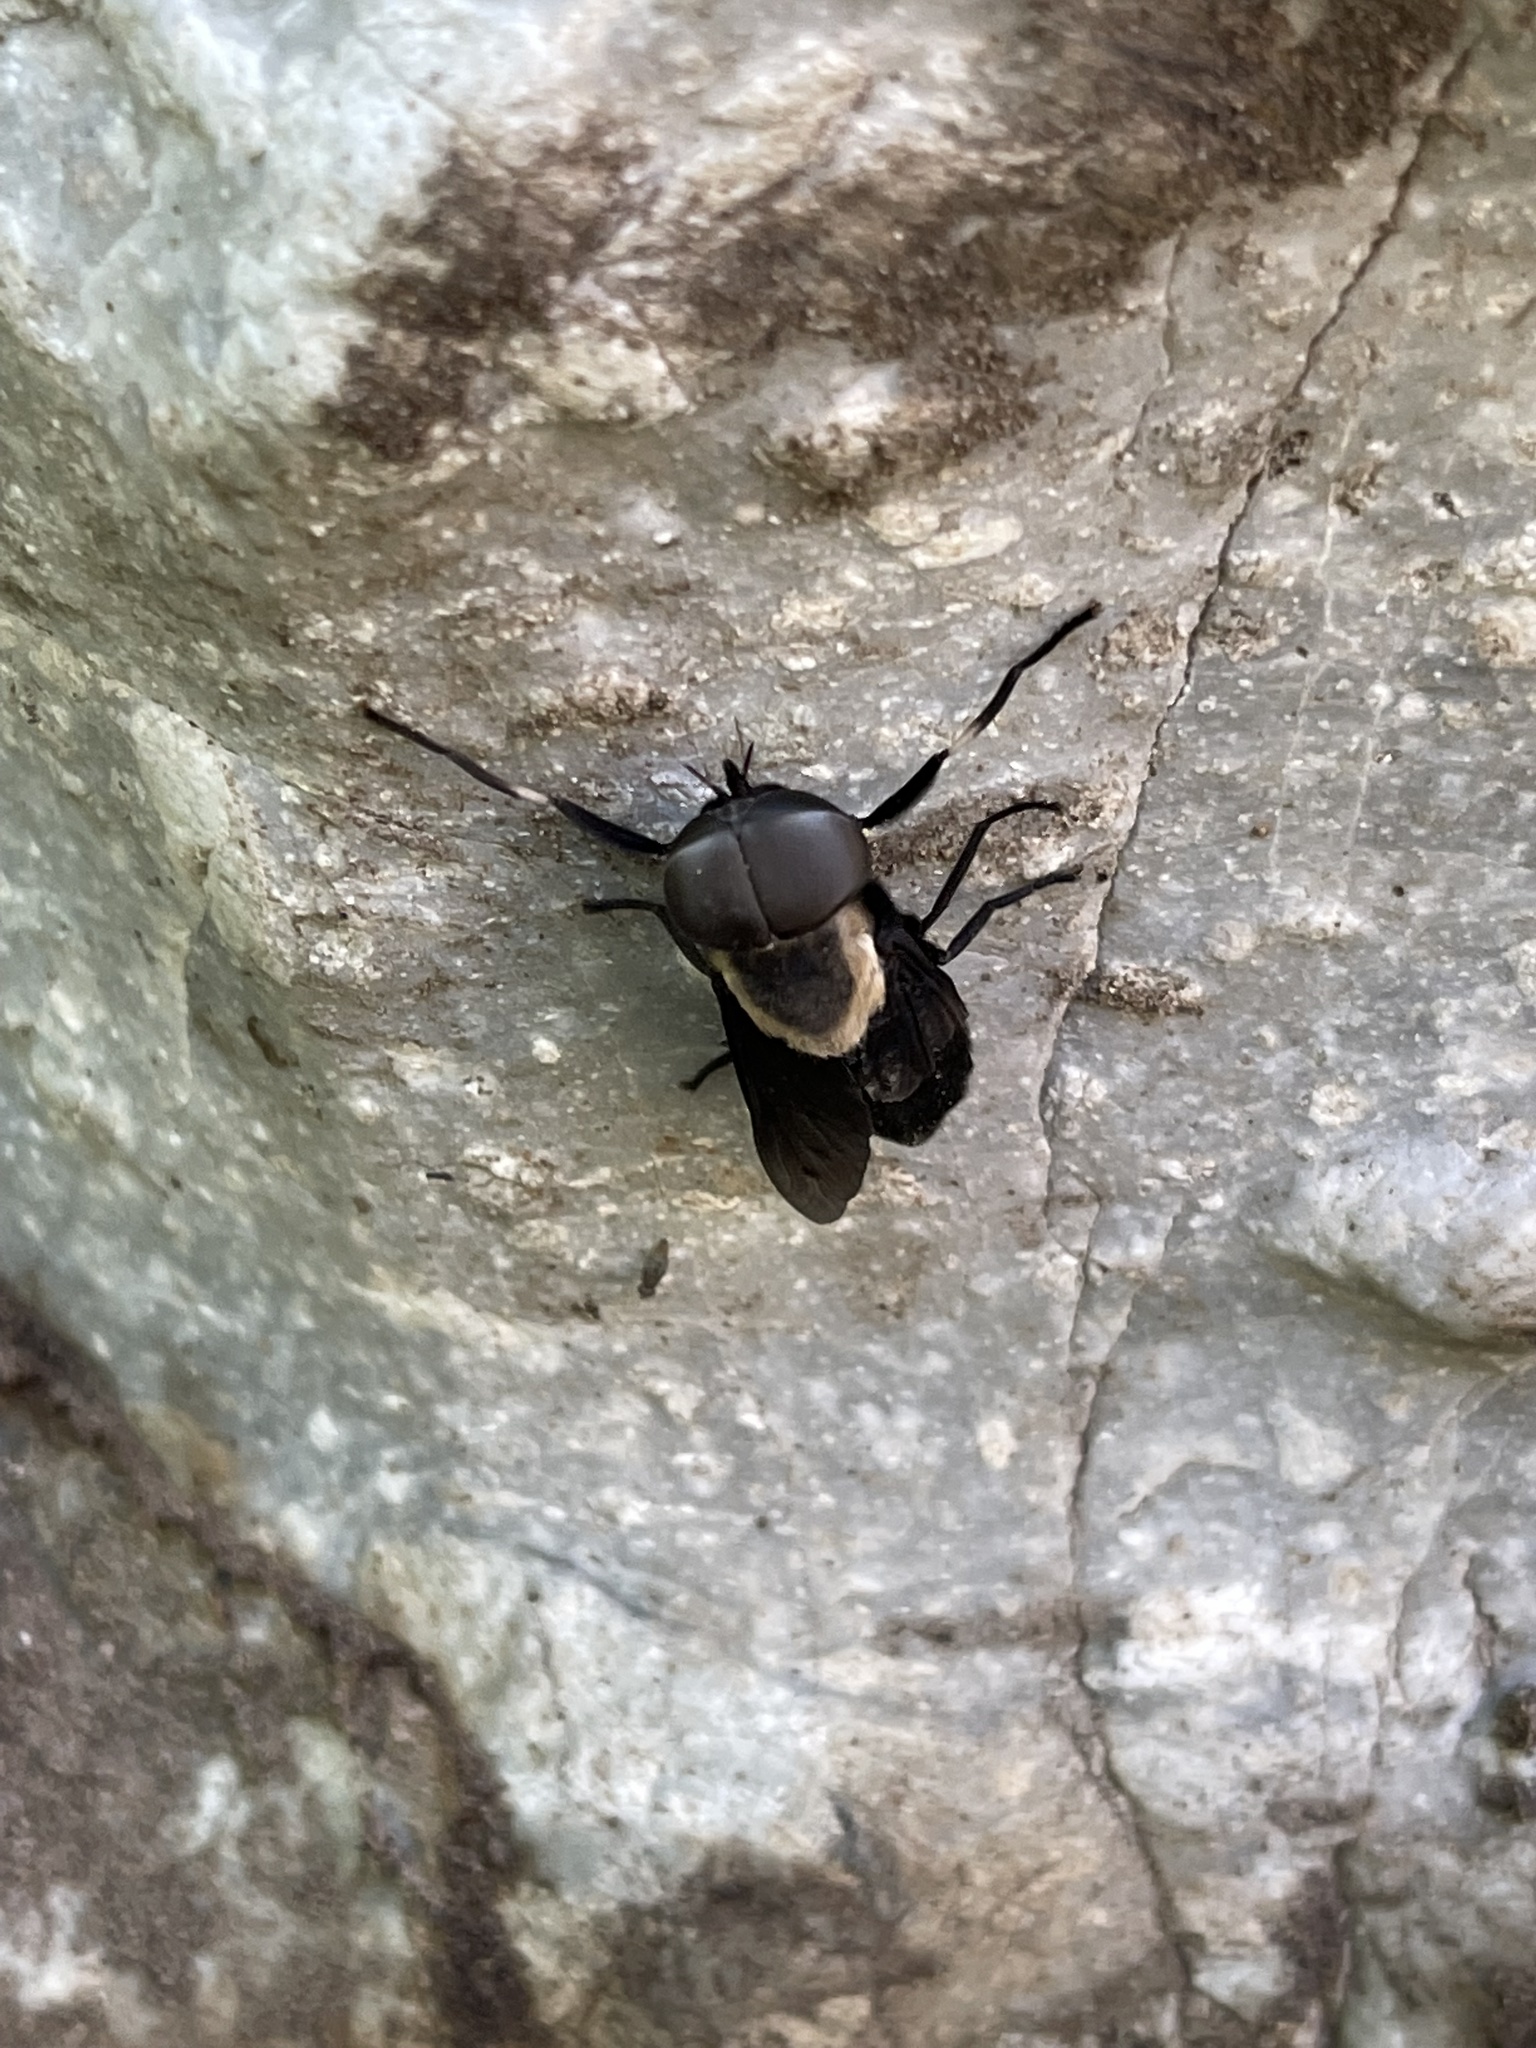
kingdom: Plantae
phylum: Tracheophyta
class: Magnoliopsida
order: Lamiales
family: Phrymaceae
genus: Erythranthe
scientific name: Erythranthe cardinalis
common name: Scarlet monkey-flower
